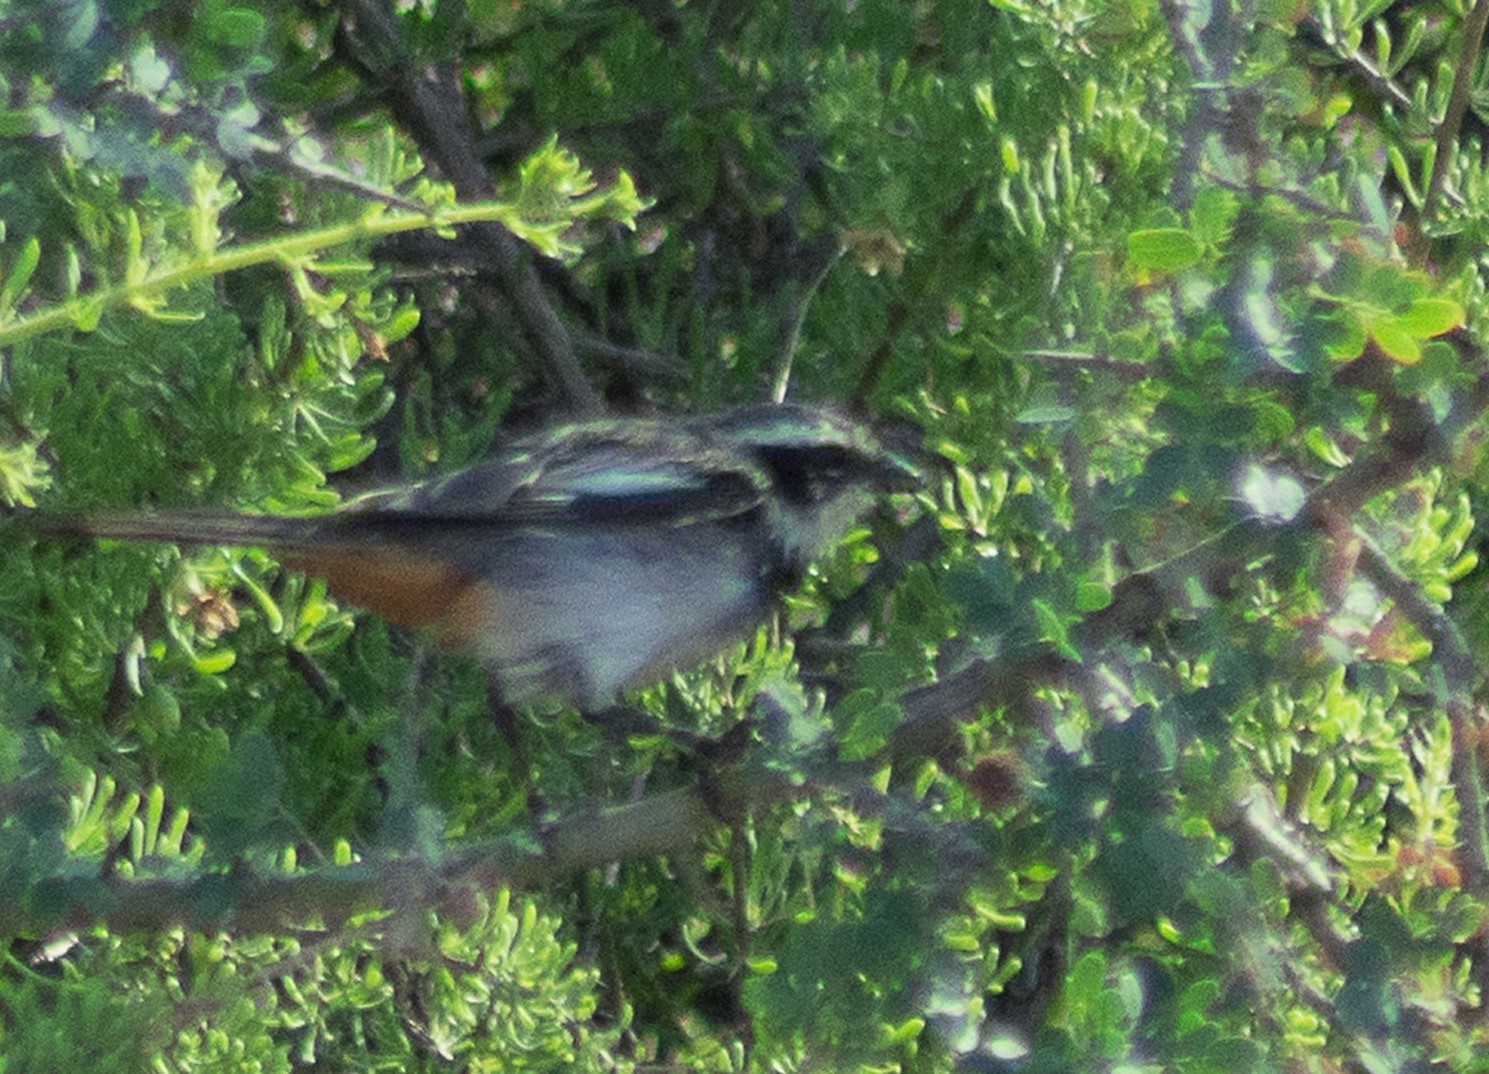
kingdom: Animalia
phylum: Chordata
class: Aves
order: Passeriformes
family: Thraupidae
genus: Microspingus
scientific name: Microspingus torquatus
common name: Ringed warbling-finch
